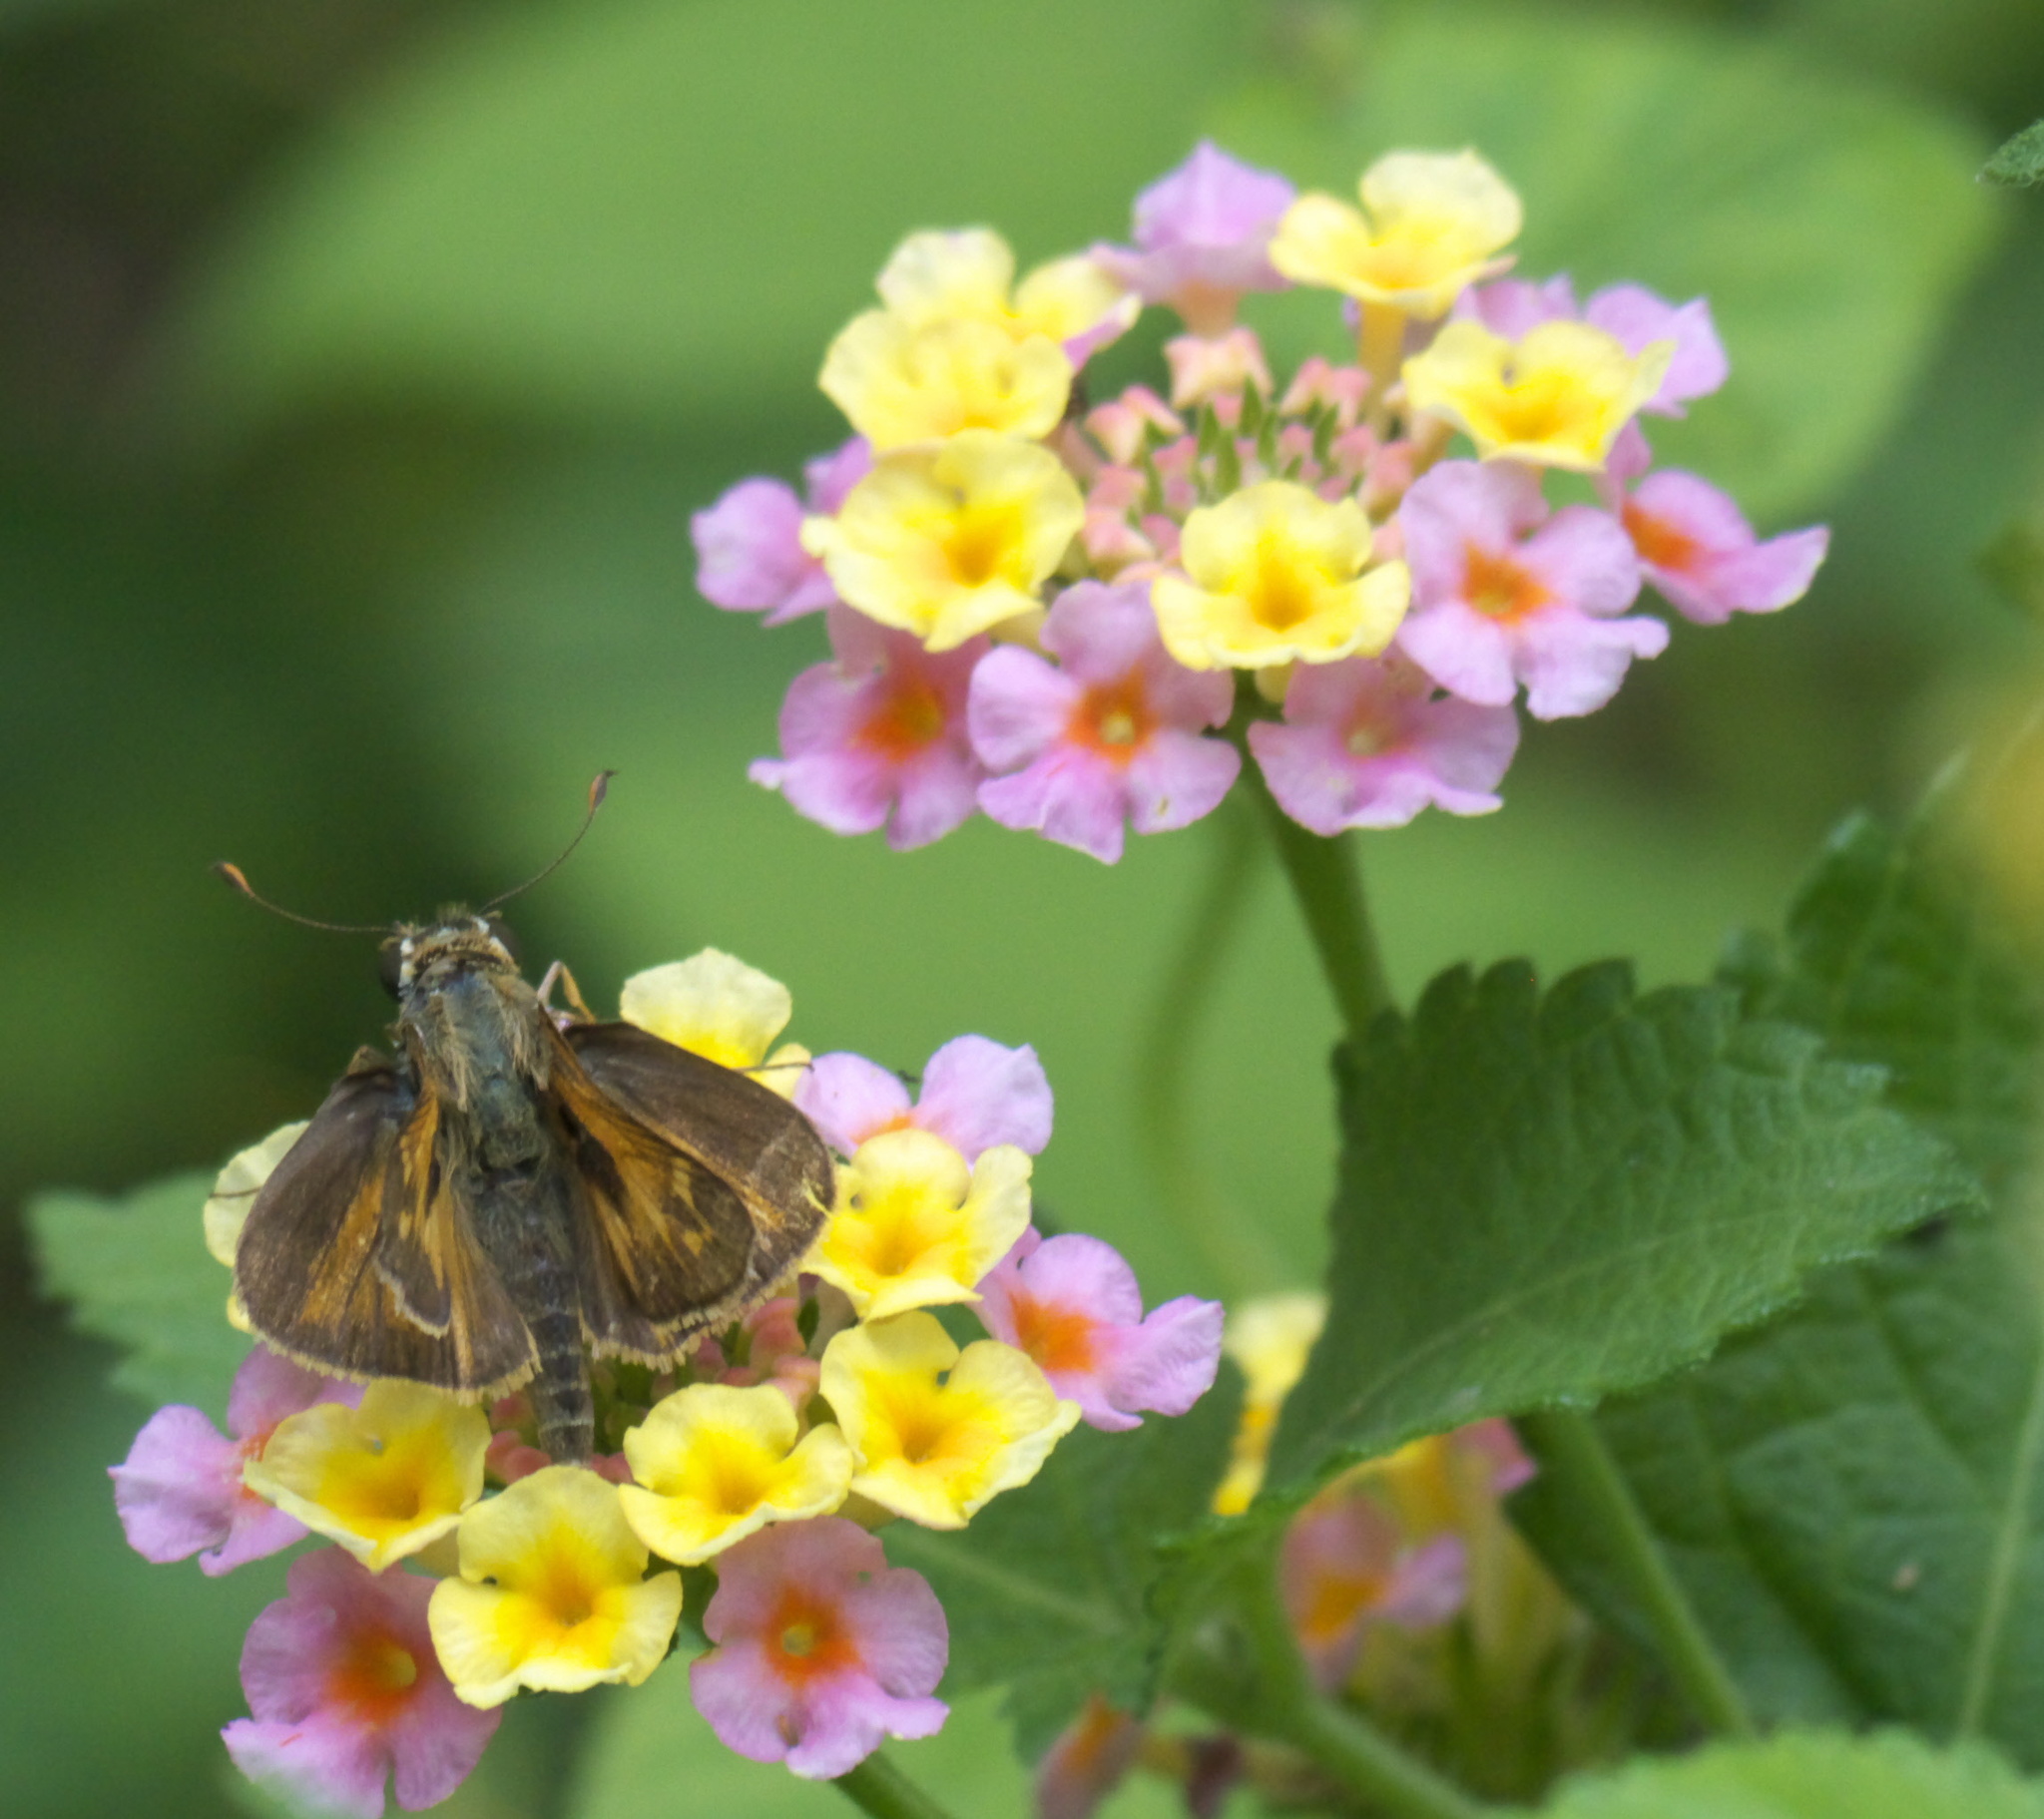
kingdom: Animalia
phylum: Arthropoda
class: Insecta
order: Lepidoptera
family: Hesperiidae
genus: Atalopedes
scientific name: Atalopedes
